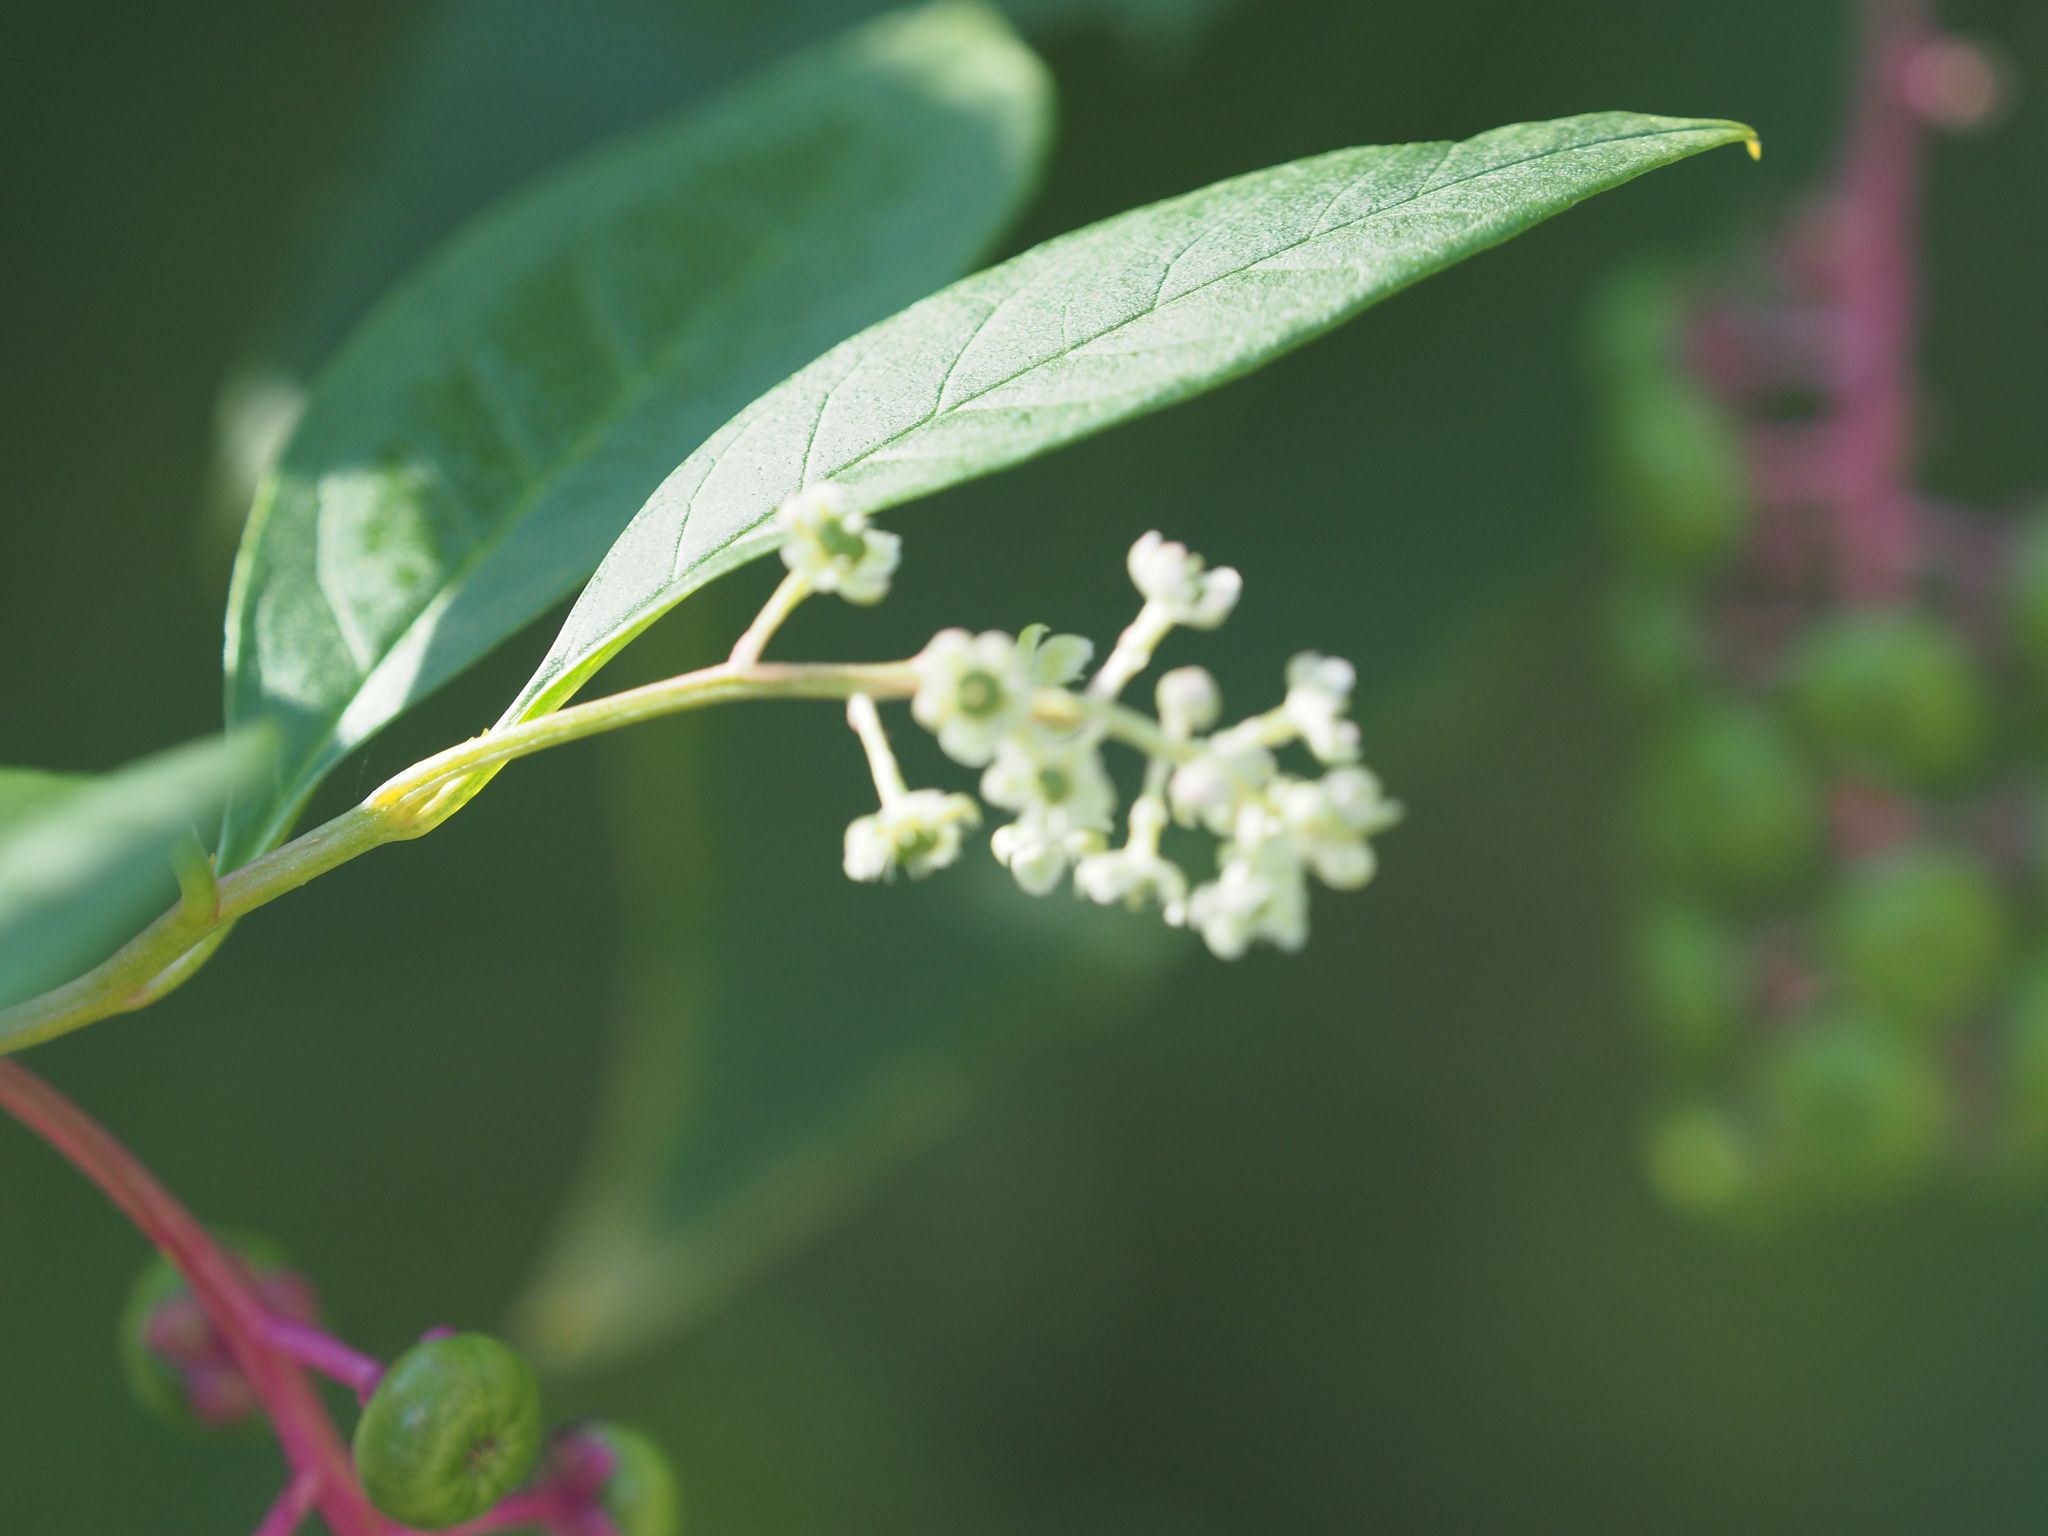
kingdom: Plantae
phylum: Tracheophyta
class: Magnoliopsida
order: Caryophyllales
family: Phytolaccaceae
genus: Phytolacca
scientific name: Phytolacca americana
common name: American pokeweed
